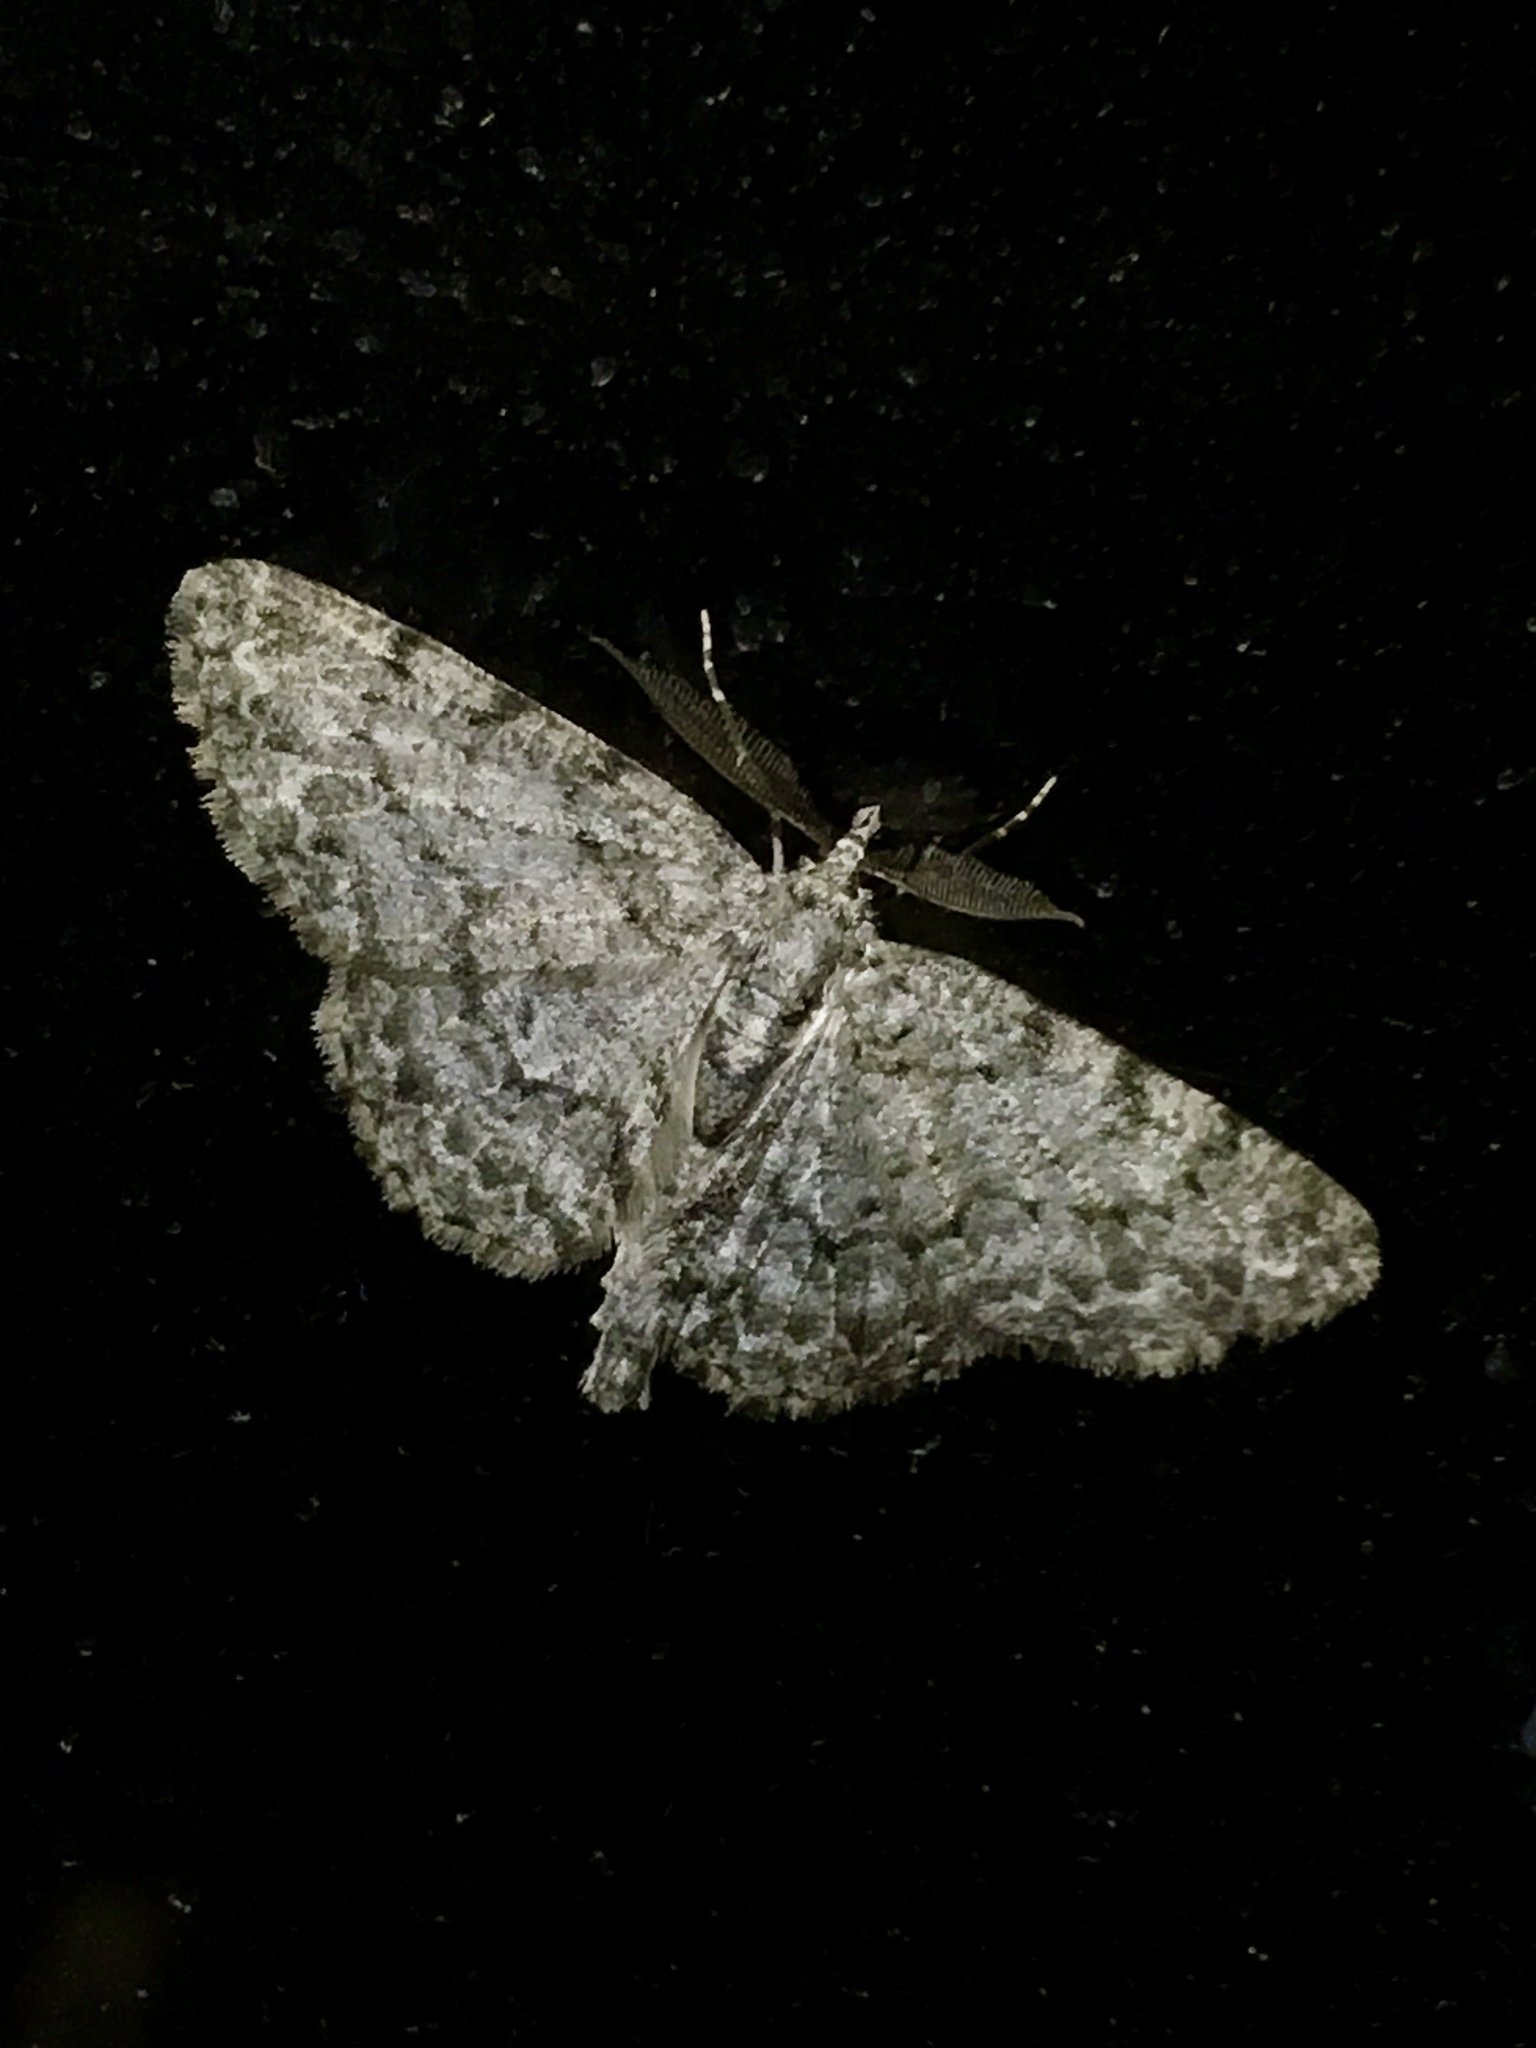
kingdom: Animalia
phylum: Arthropoda
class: Insecta
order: Lepidoptera
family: Geometridae
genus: Protoboarmia
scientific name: Protoboarmia porcelaria
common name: Porcelain gray
